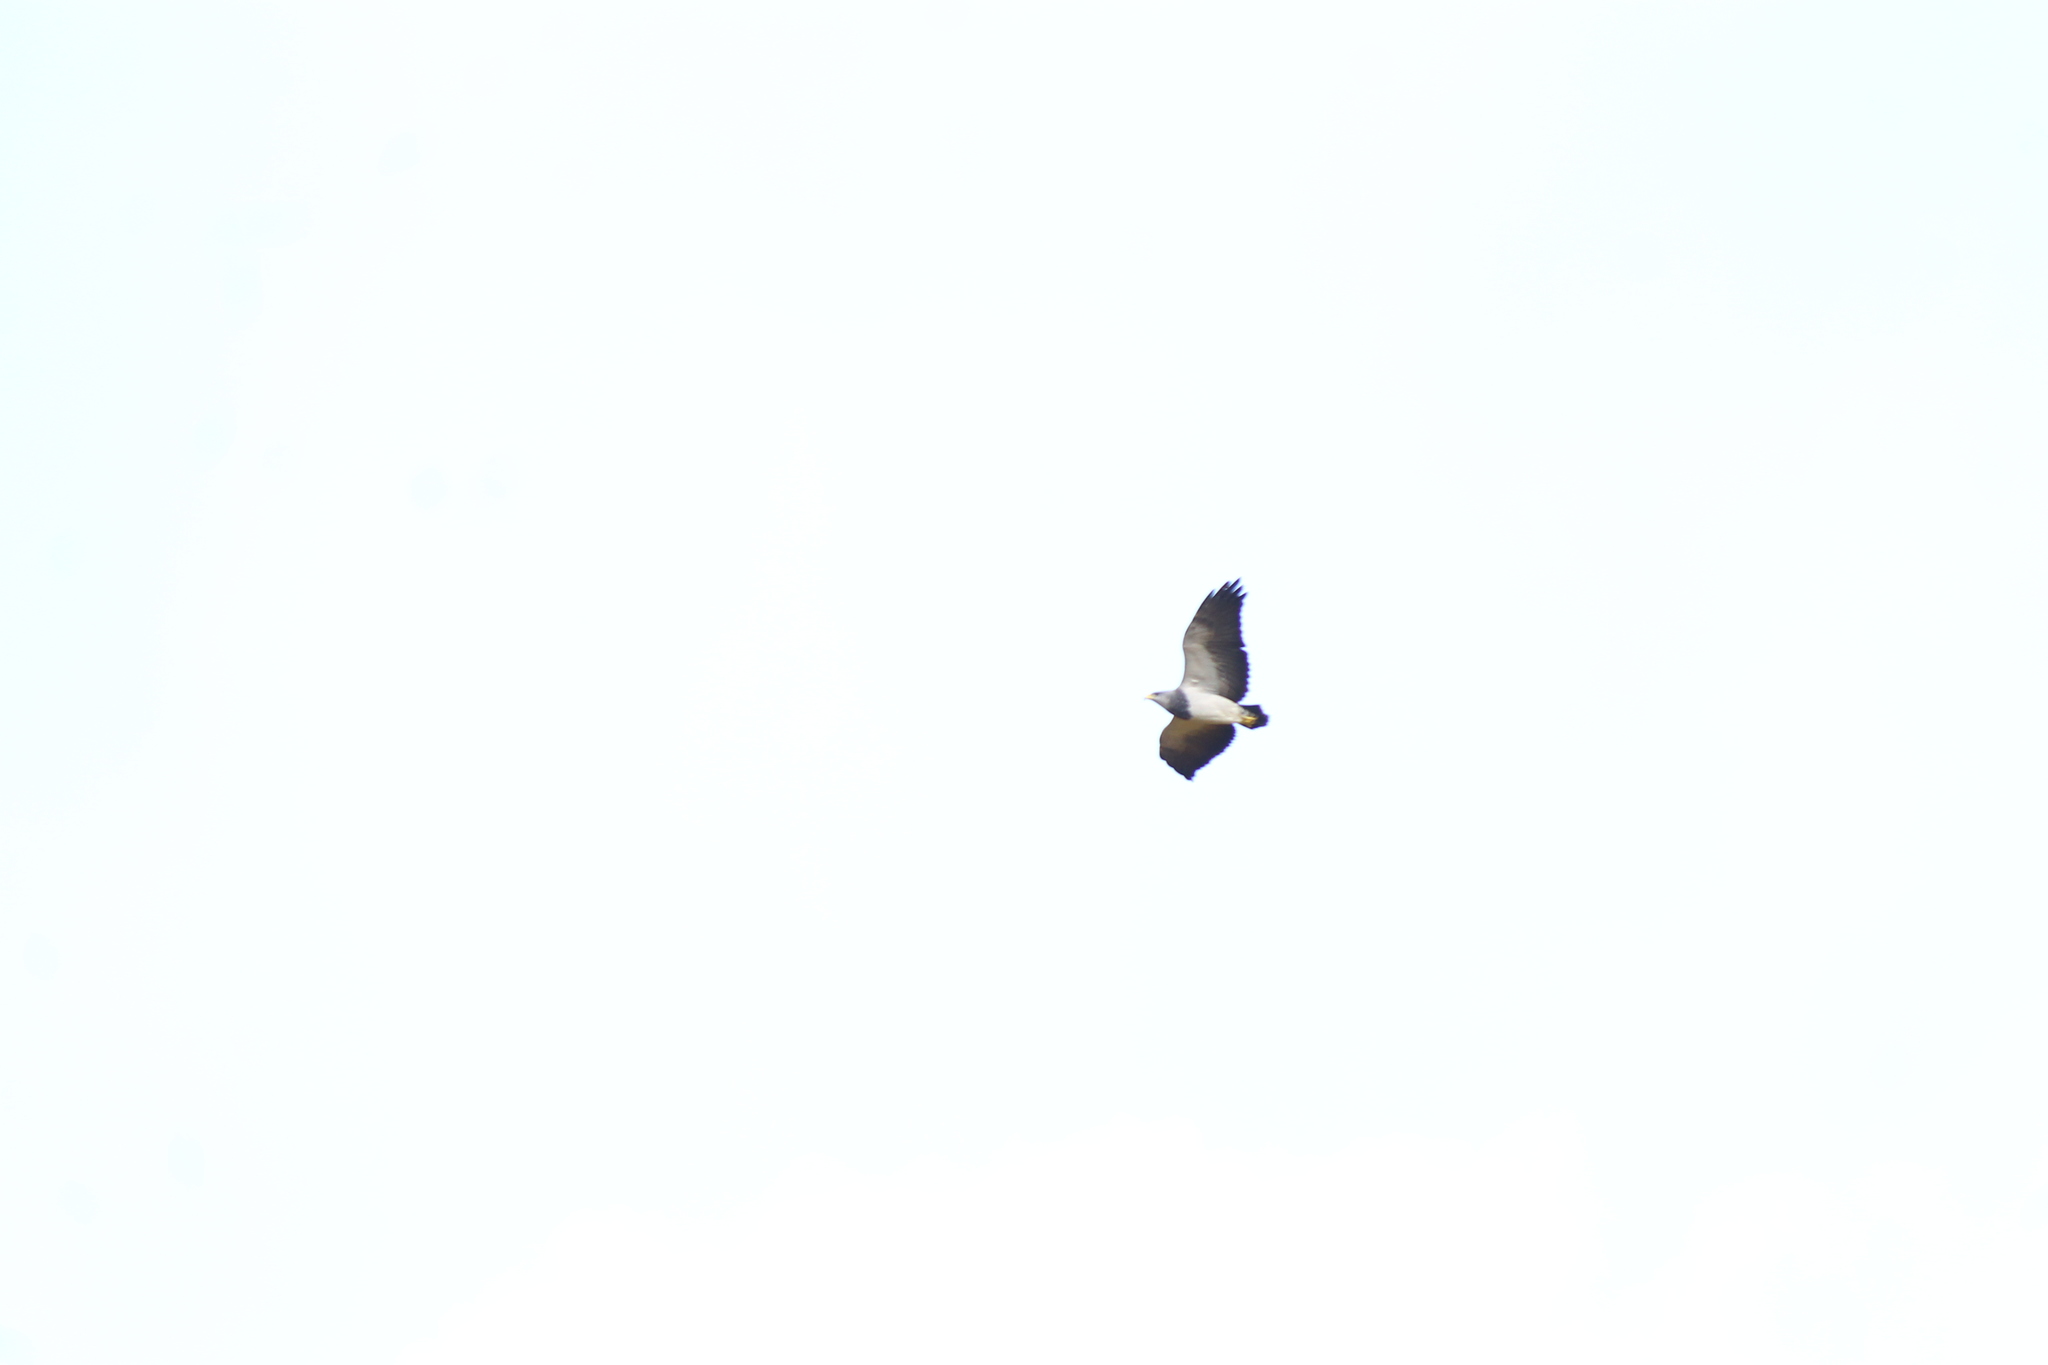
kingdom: Animalia
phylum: Chordata
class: Aves
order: Accipitriformes
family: Accipitridae
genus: Geranoaetus
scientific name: Geranoaetus melanoleucus
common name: Black-chested buzzard-eagle
